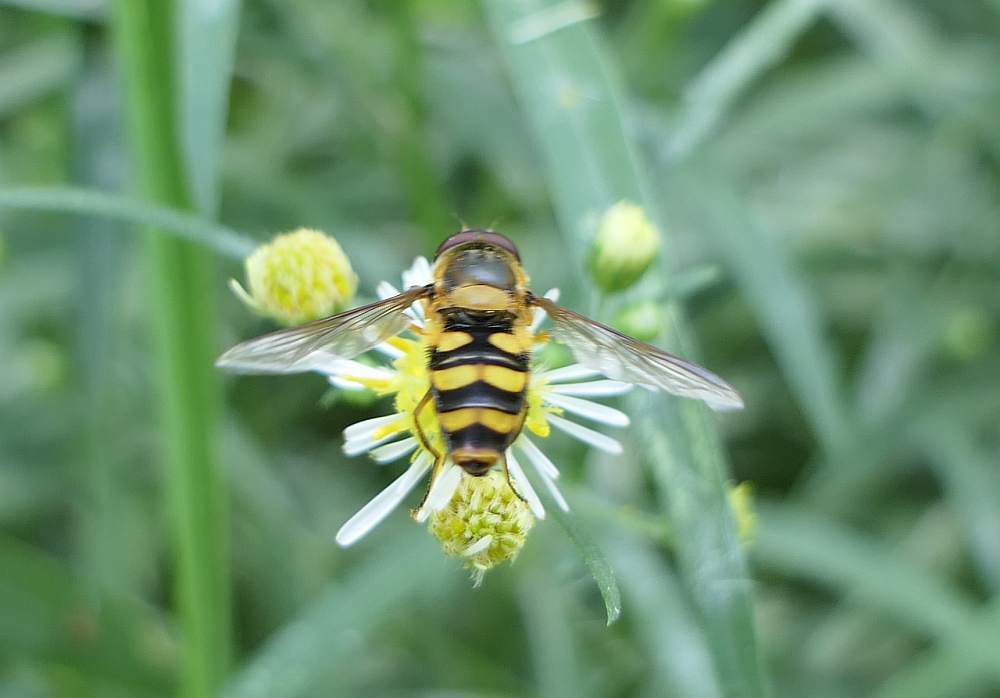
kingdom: Animalia
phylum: Arthropoda
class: Insecta
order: Diptera
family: Syrphidae
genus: Syrphus
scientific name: Syrphus
